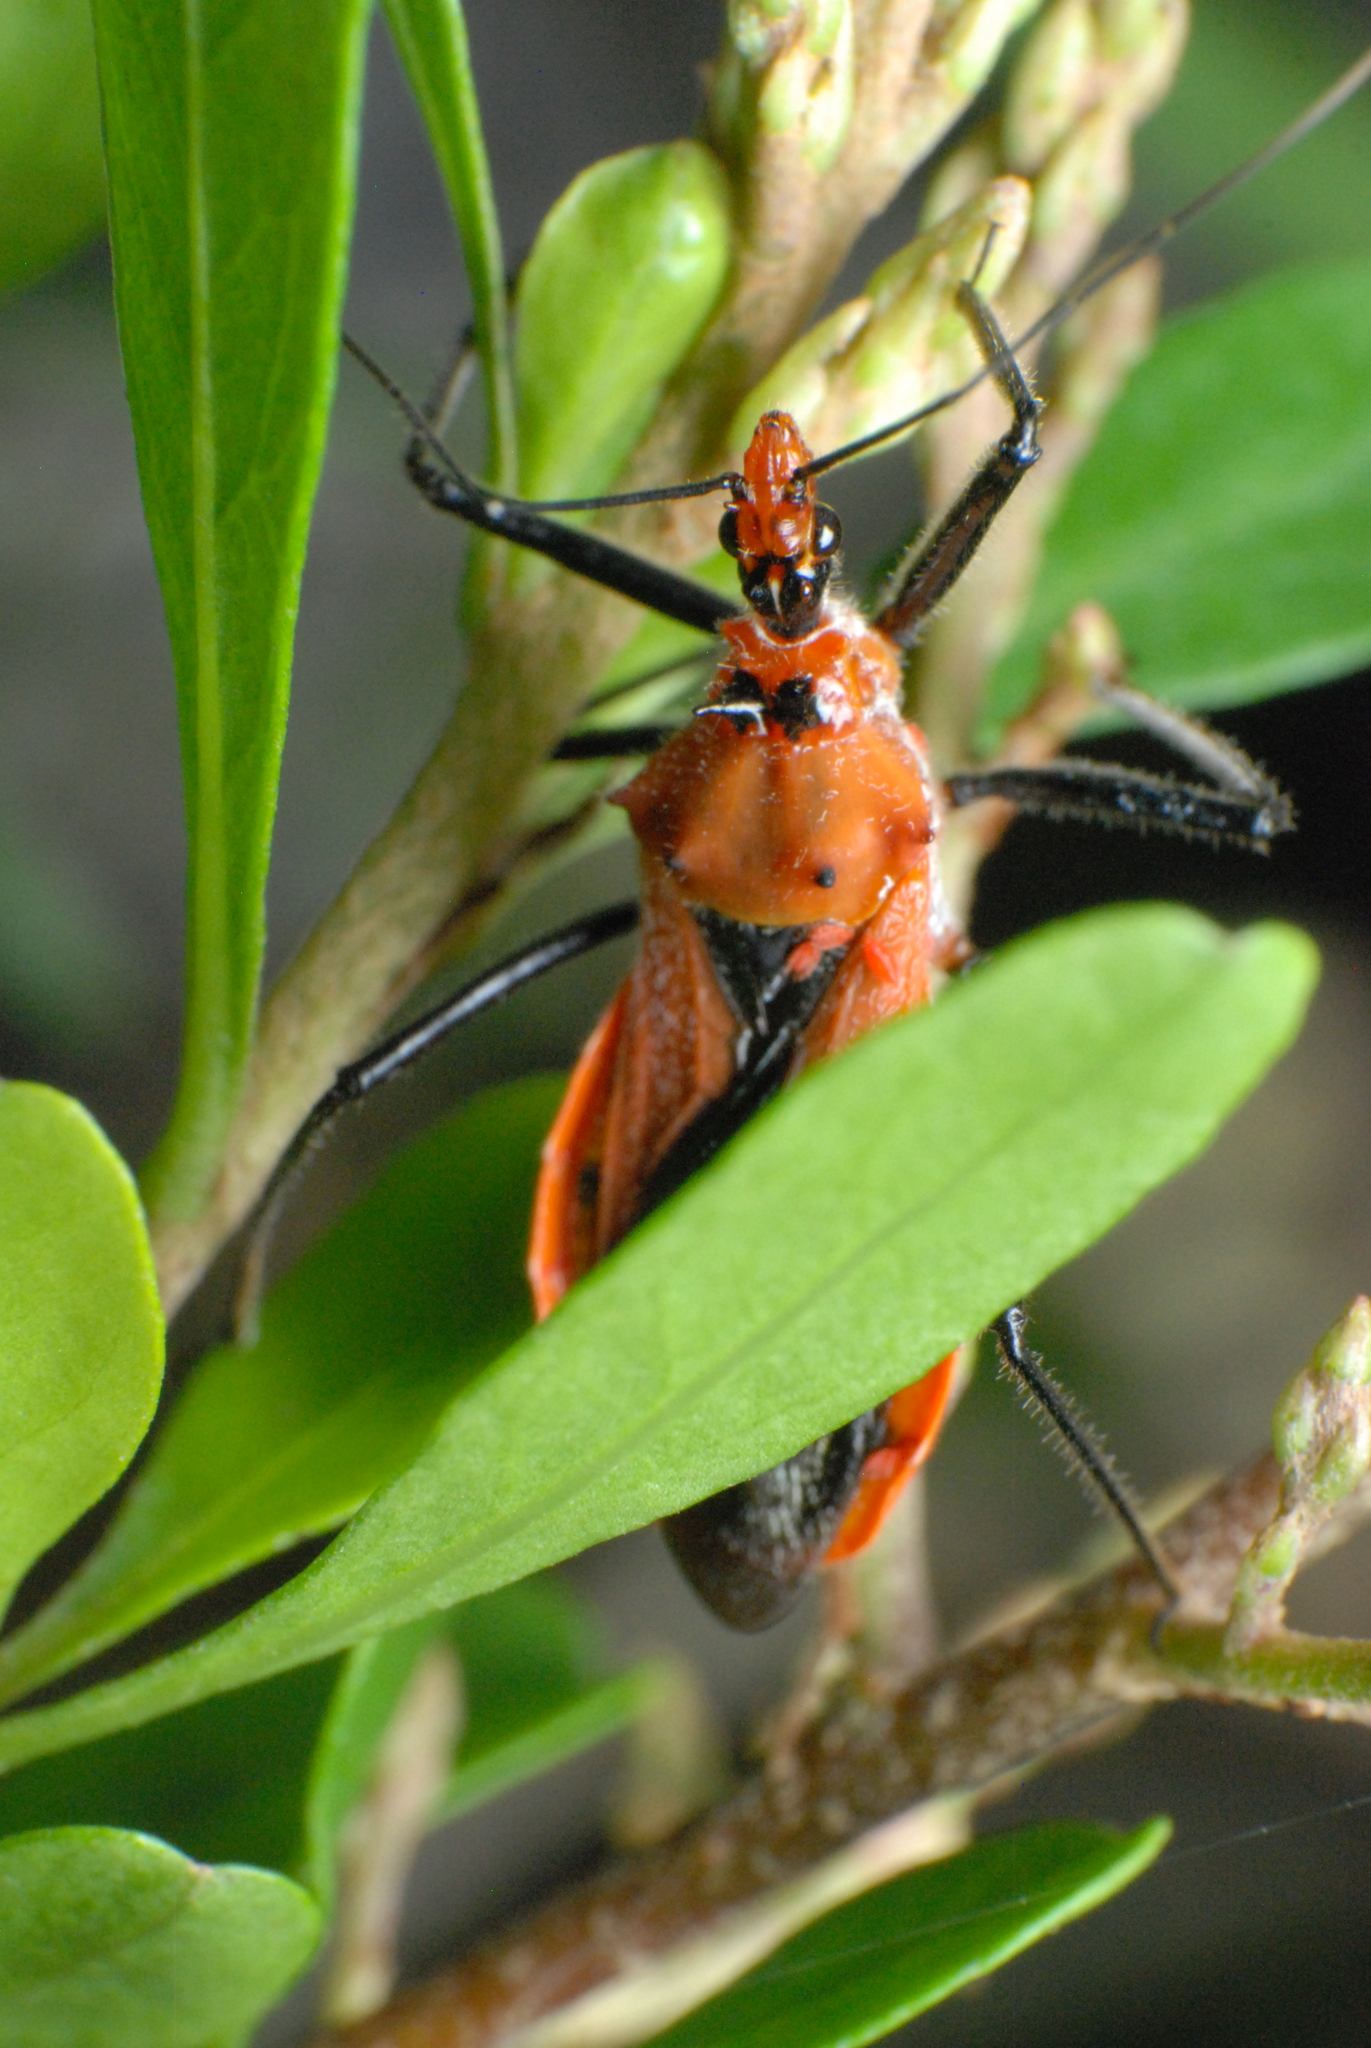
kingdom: Animalia
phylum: Arthropoda
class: Insecta
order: Hemiptera
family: Reduviidae
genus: Gminatus
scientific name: Gminatus australis
